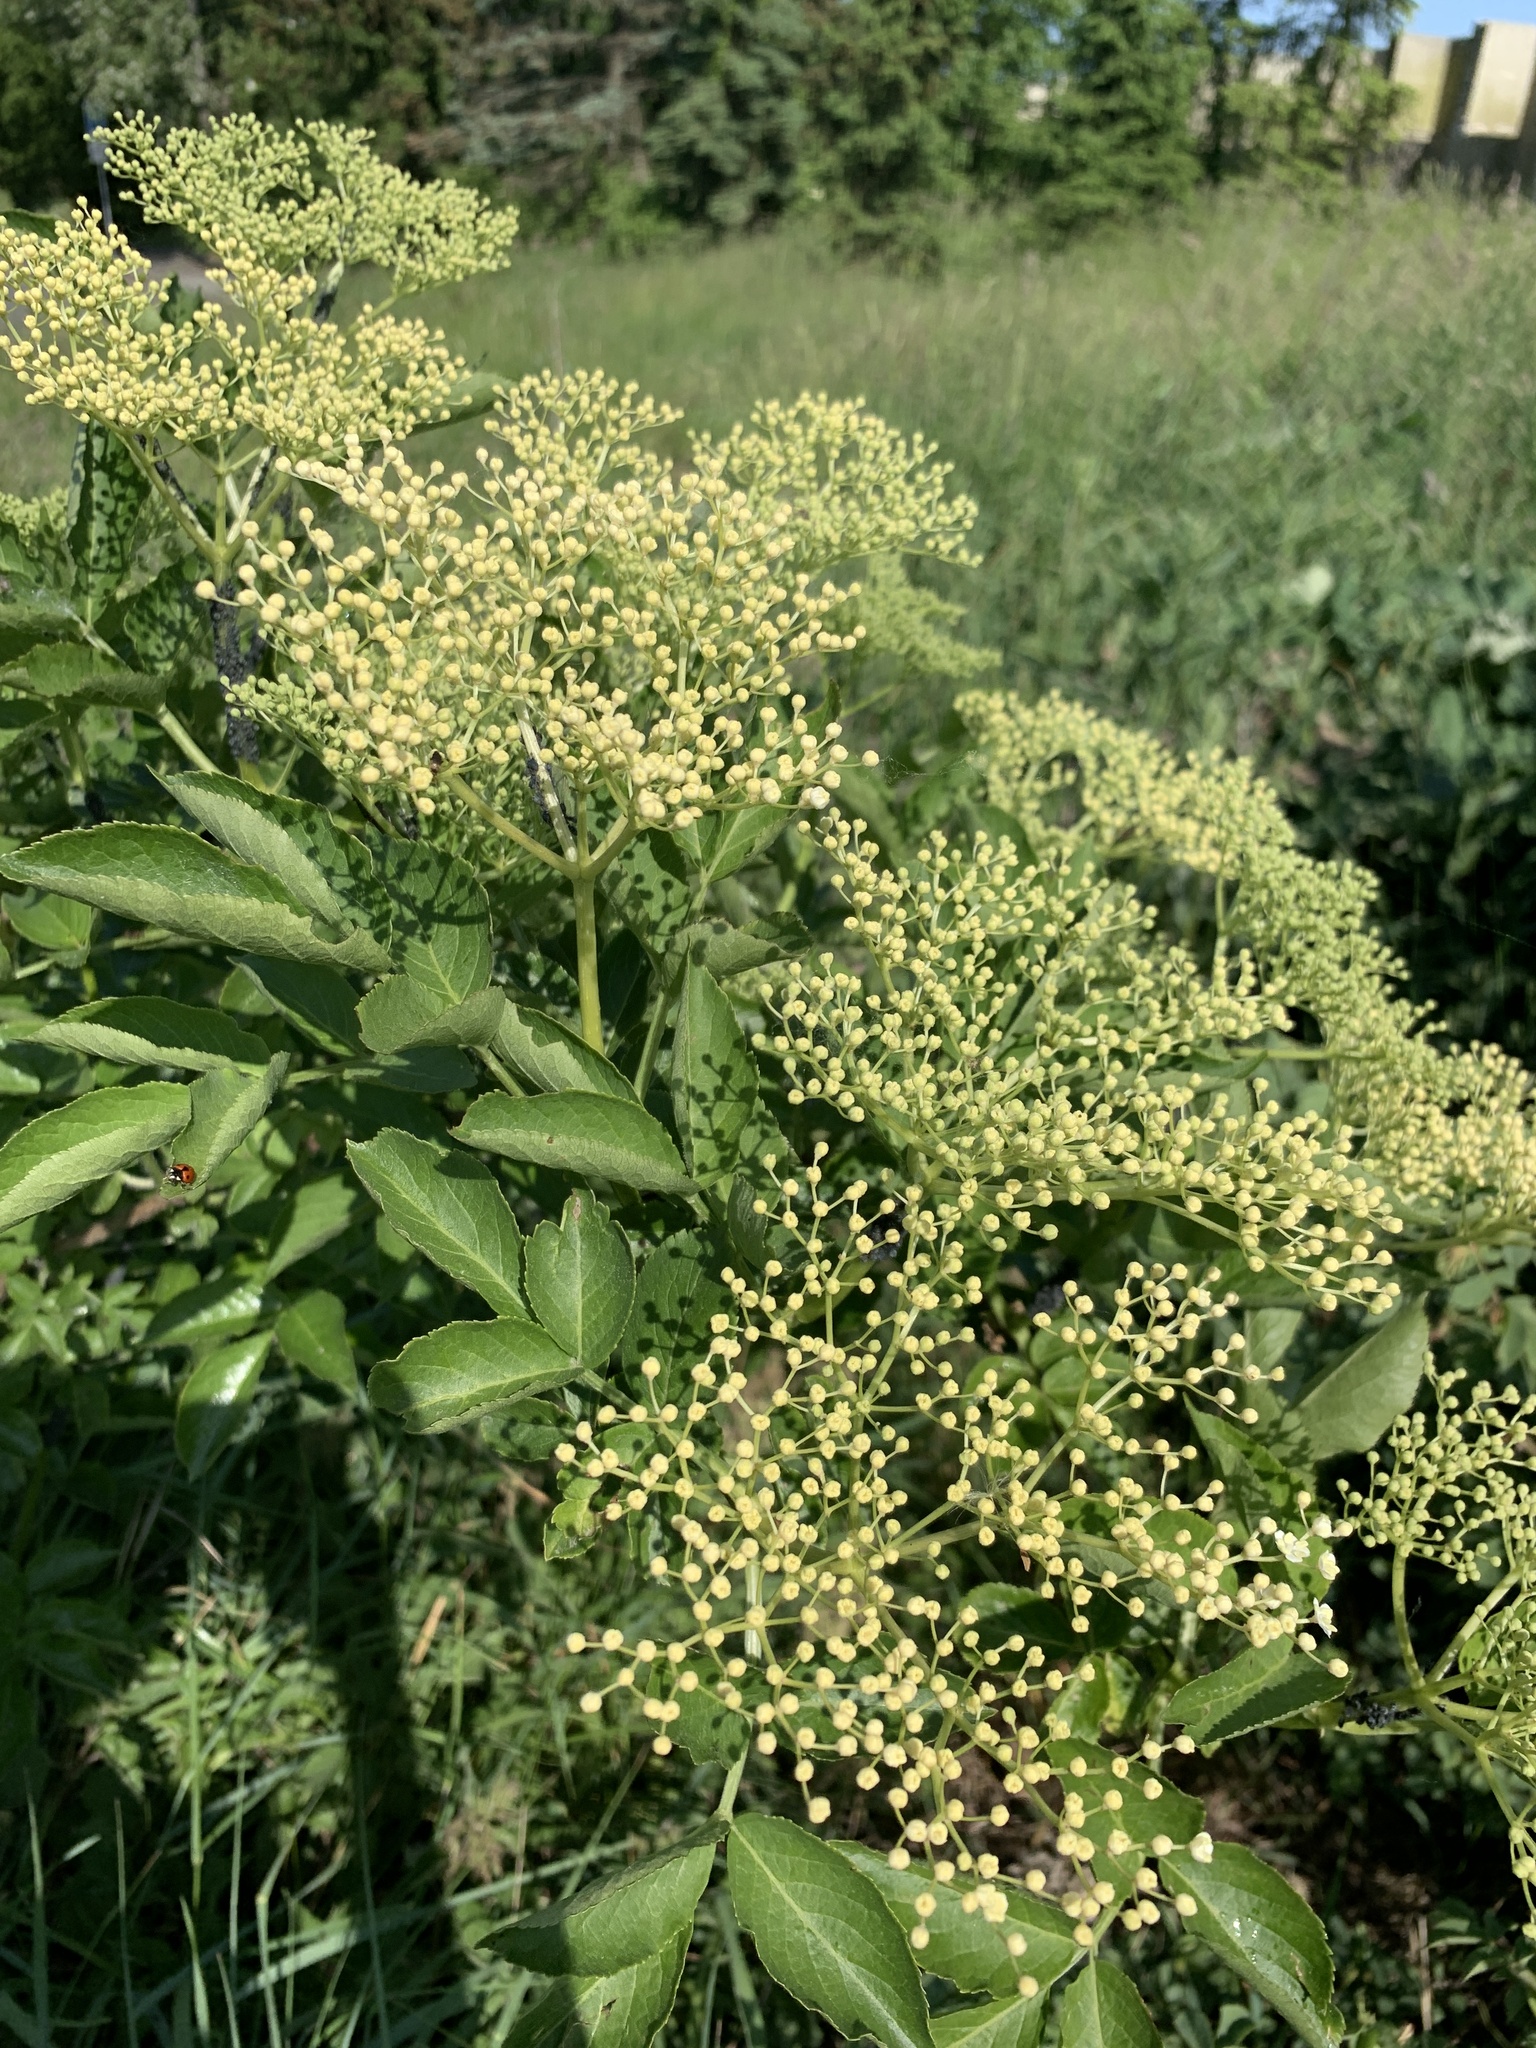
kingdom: Plantae
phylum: Tracheophyta
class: Magnoliopsida
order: Dipsacales
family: Viburnaceae
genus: Sambucus
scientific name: Sambucus nigra
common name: Elder
